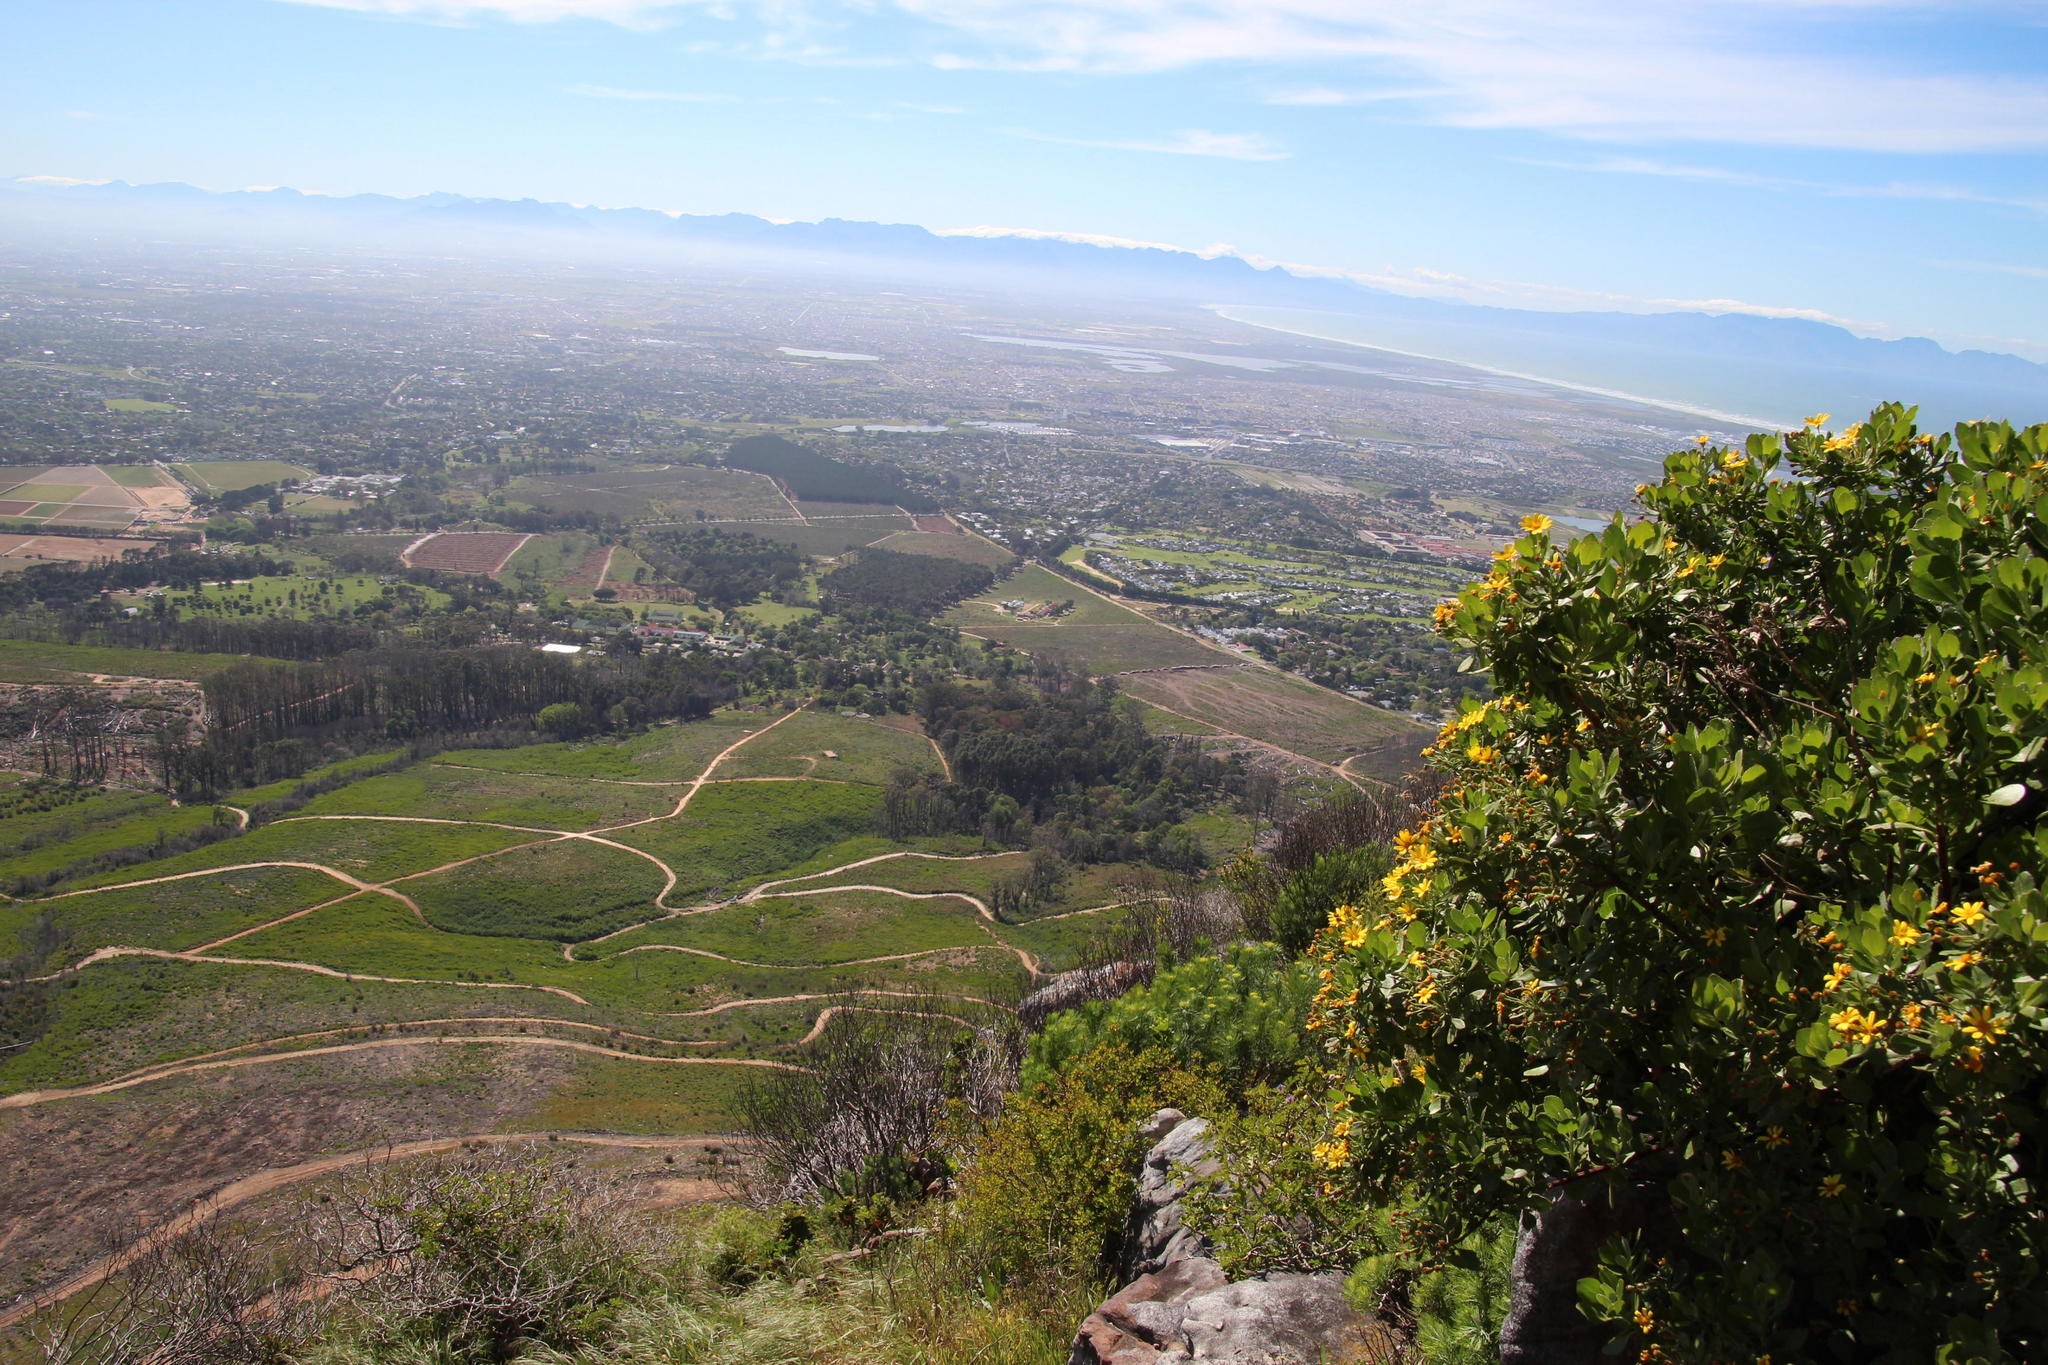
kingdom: Plantae
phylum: Tracheophyta
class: Magnoliopsida
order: Asterales
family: Asteraceae
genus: Osteospermum
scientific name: Osteospermum moniliferum
